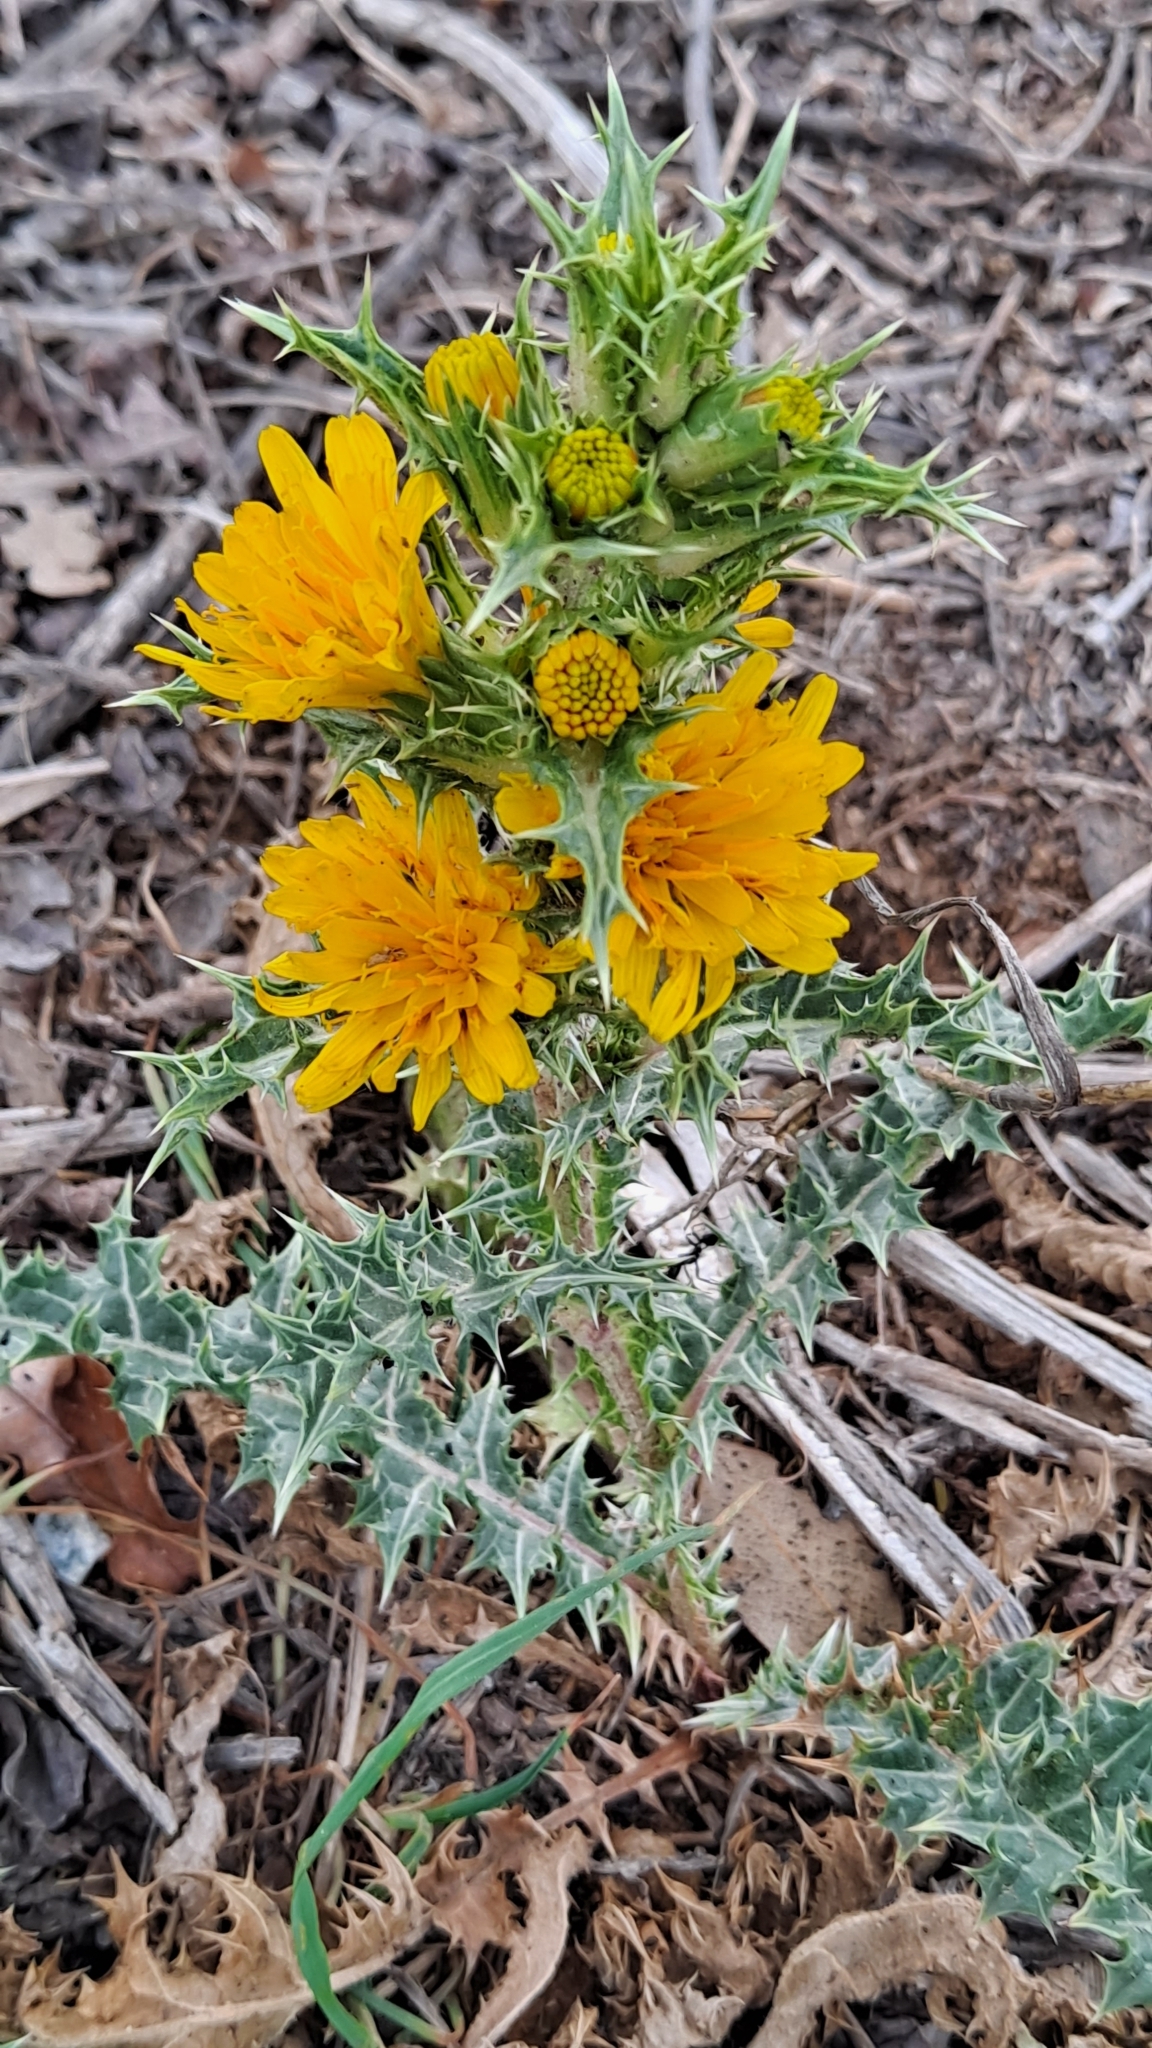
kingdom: Plantae
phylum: Tracheophyta
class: Magnoliopsida
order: Asterales
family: Asteraceae
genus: Scolymus
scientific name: Scolymus hispanicus
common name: Golden thistle
